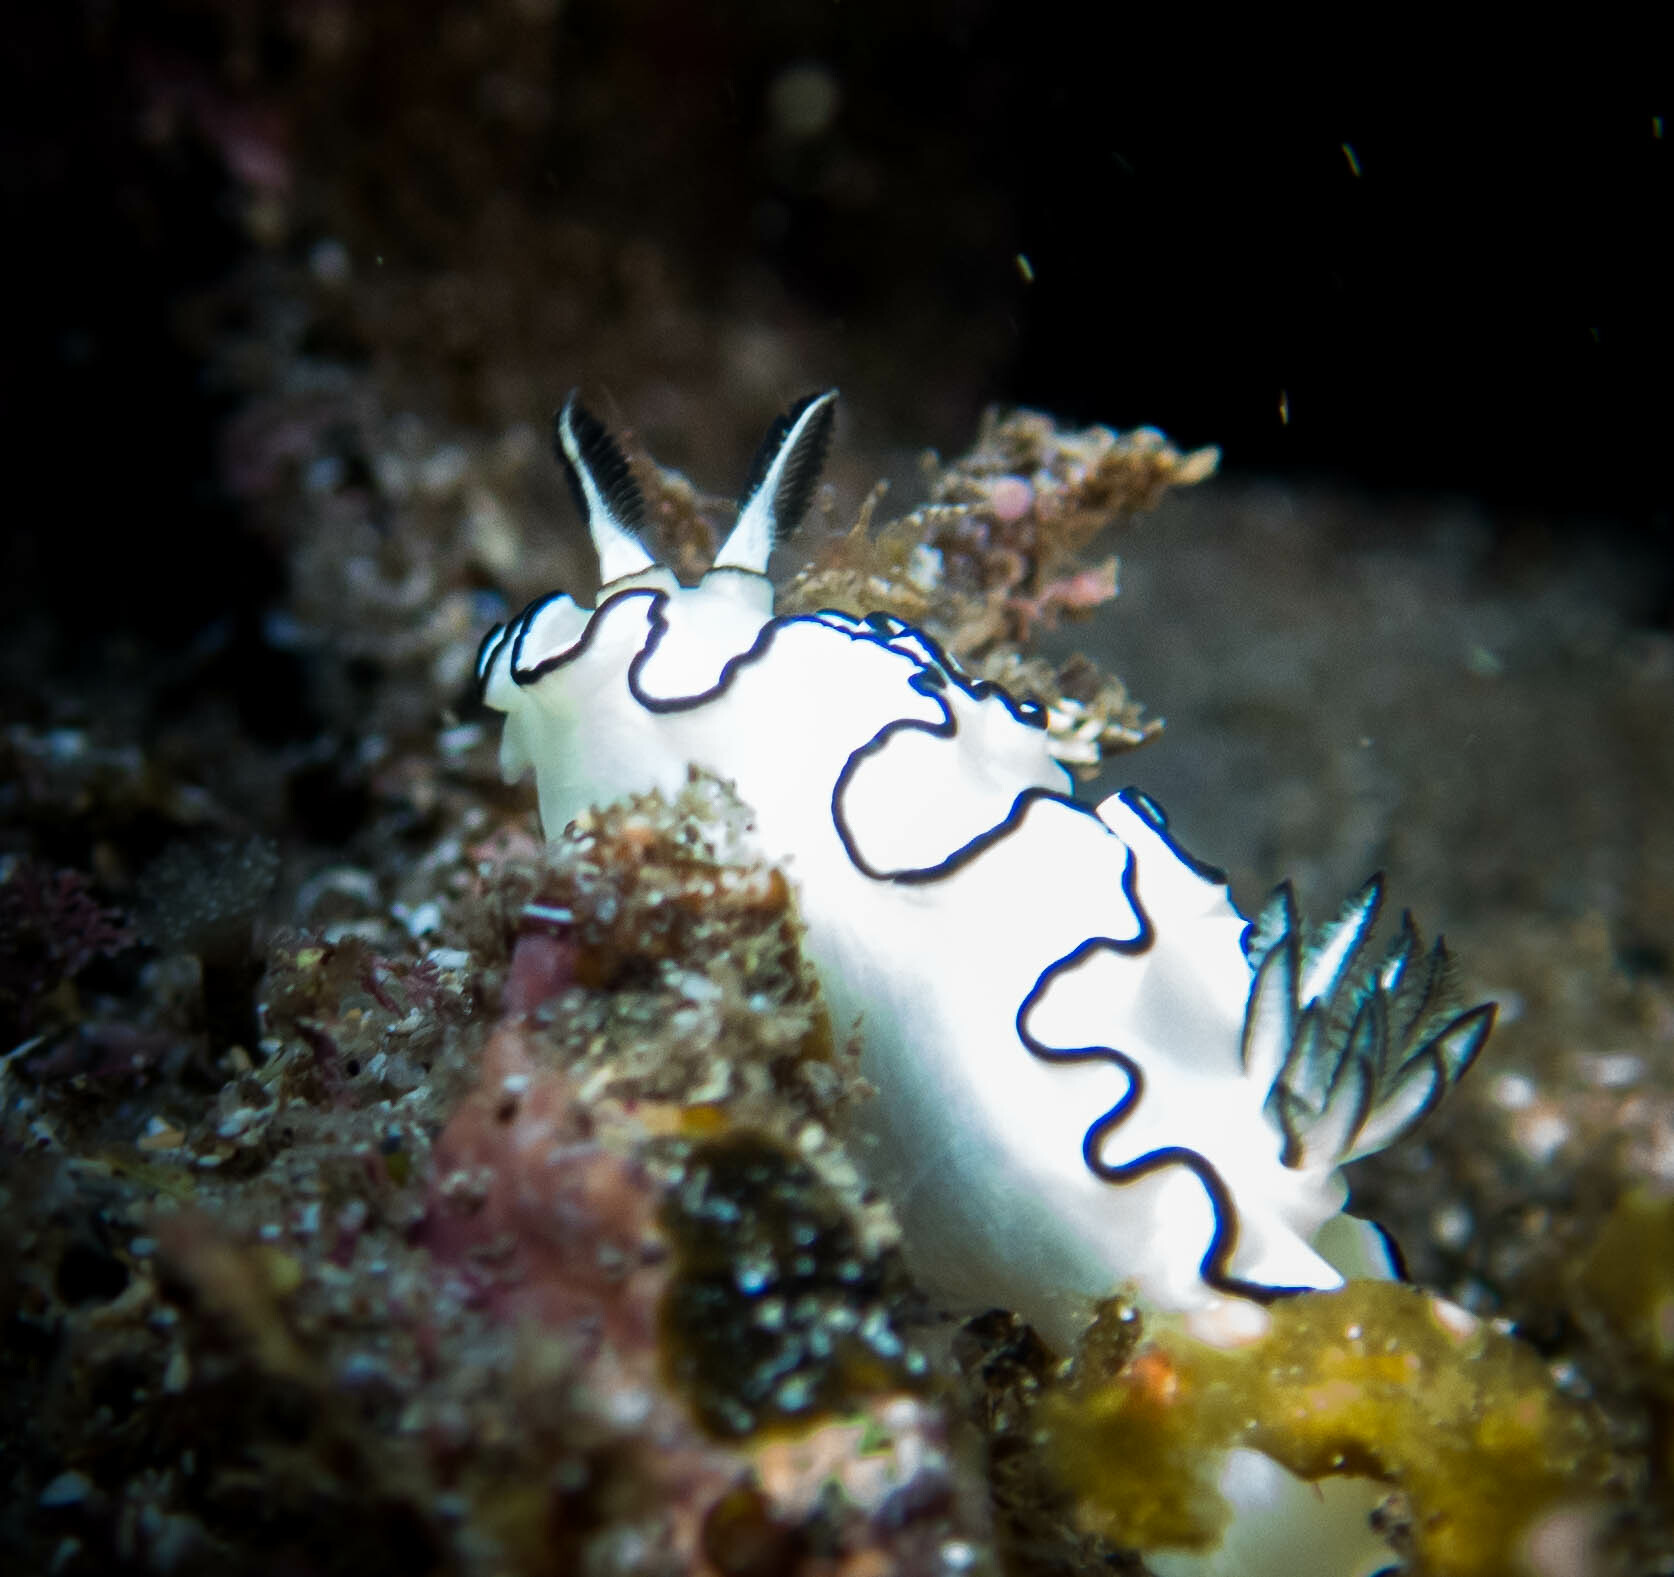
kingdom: Animalia
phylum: Mollusca
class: Gastropoda
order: Nudibranchia
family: Chromodorididae
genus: Doriprismatica
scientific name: Doriprismatica atromarginata
